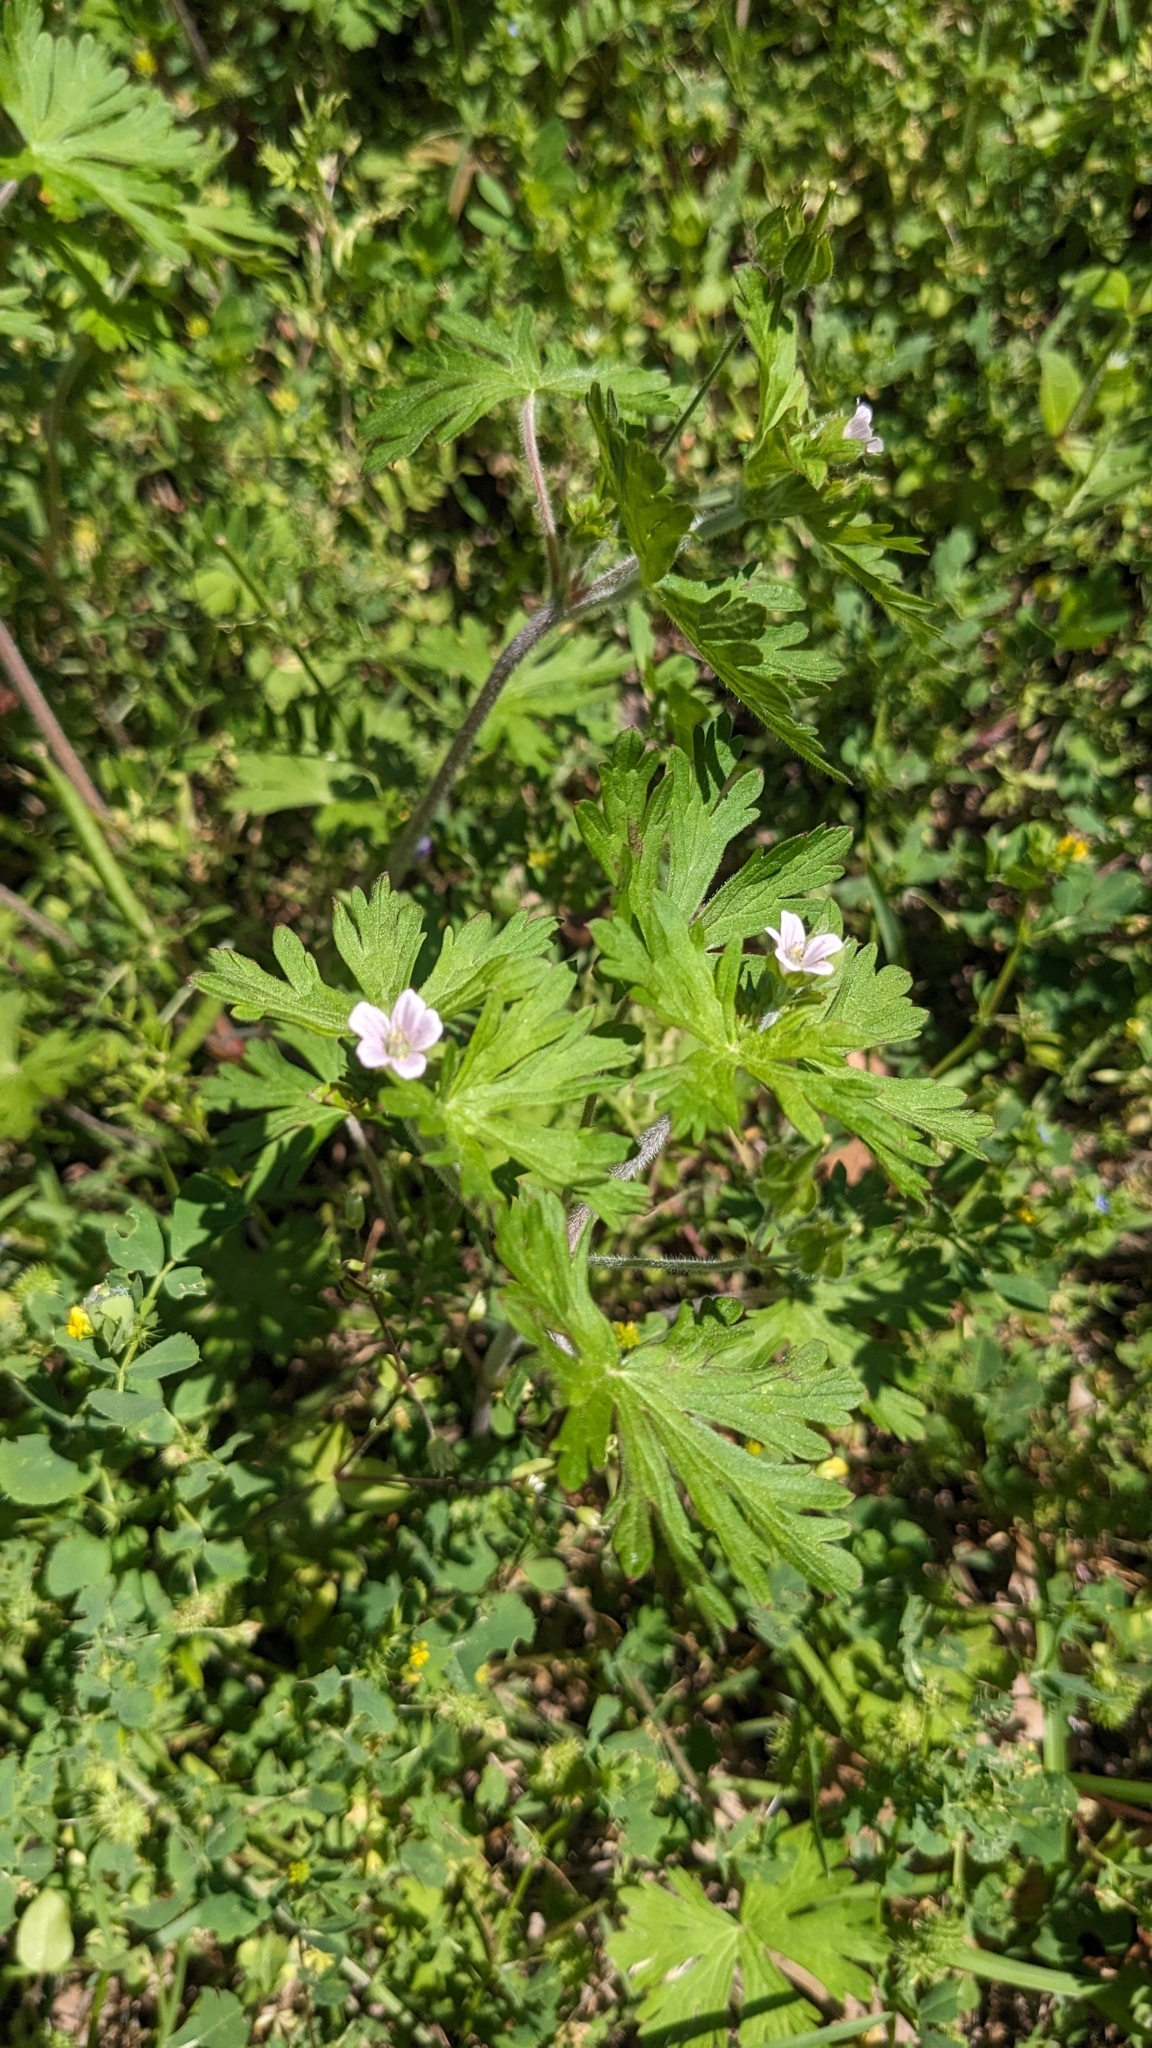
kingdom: Plantae
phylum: Tracheophyta
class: Magnoliopsida
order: Geraniales
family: Geraniaceae
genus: Geranium
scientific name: Geranium carolinianum
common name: Carolina crane's-bill
